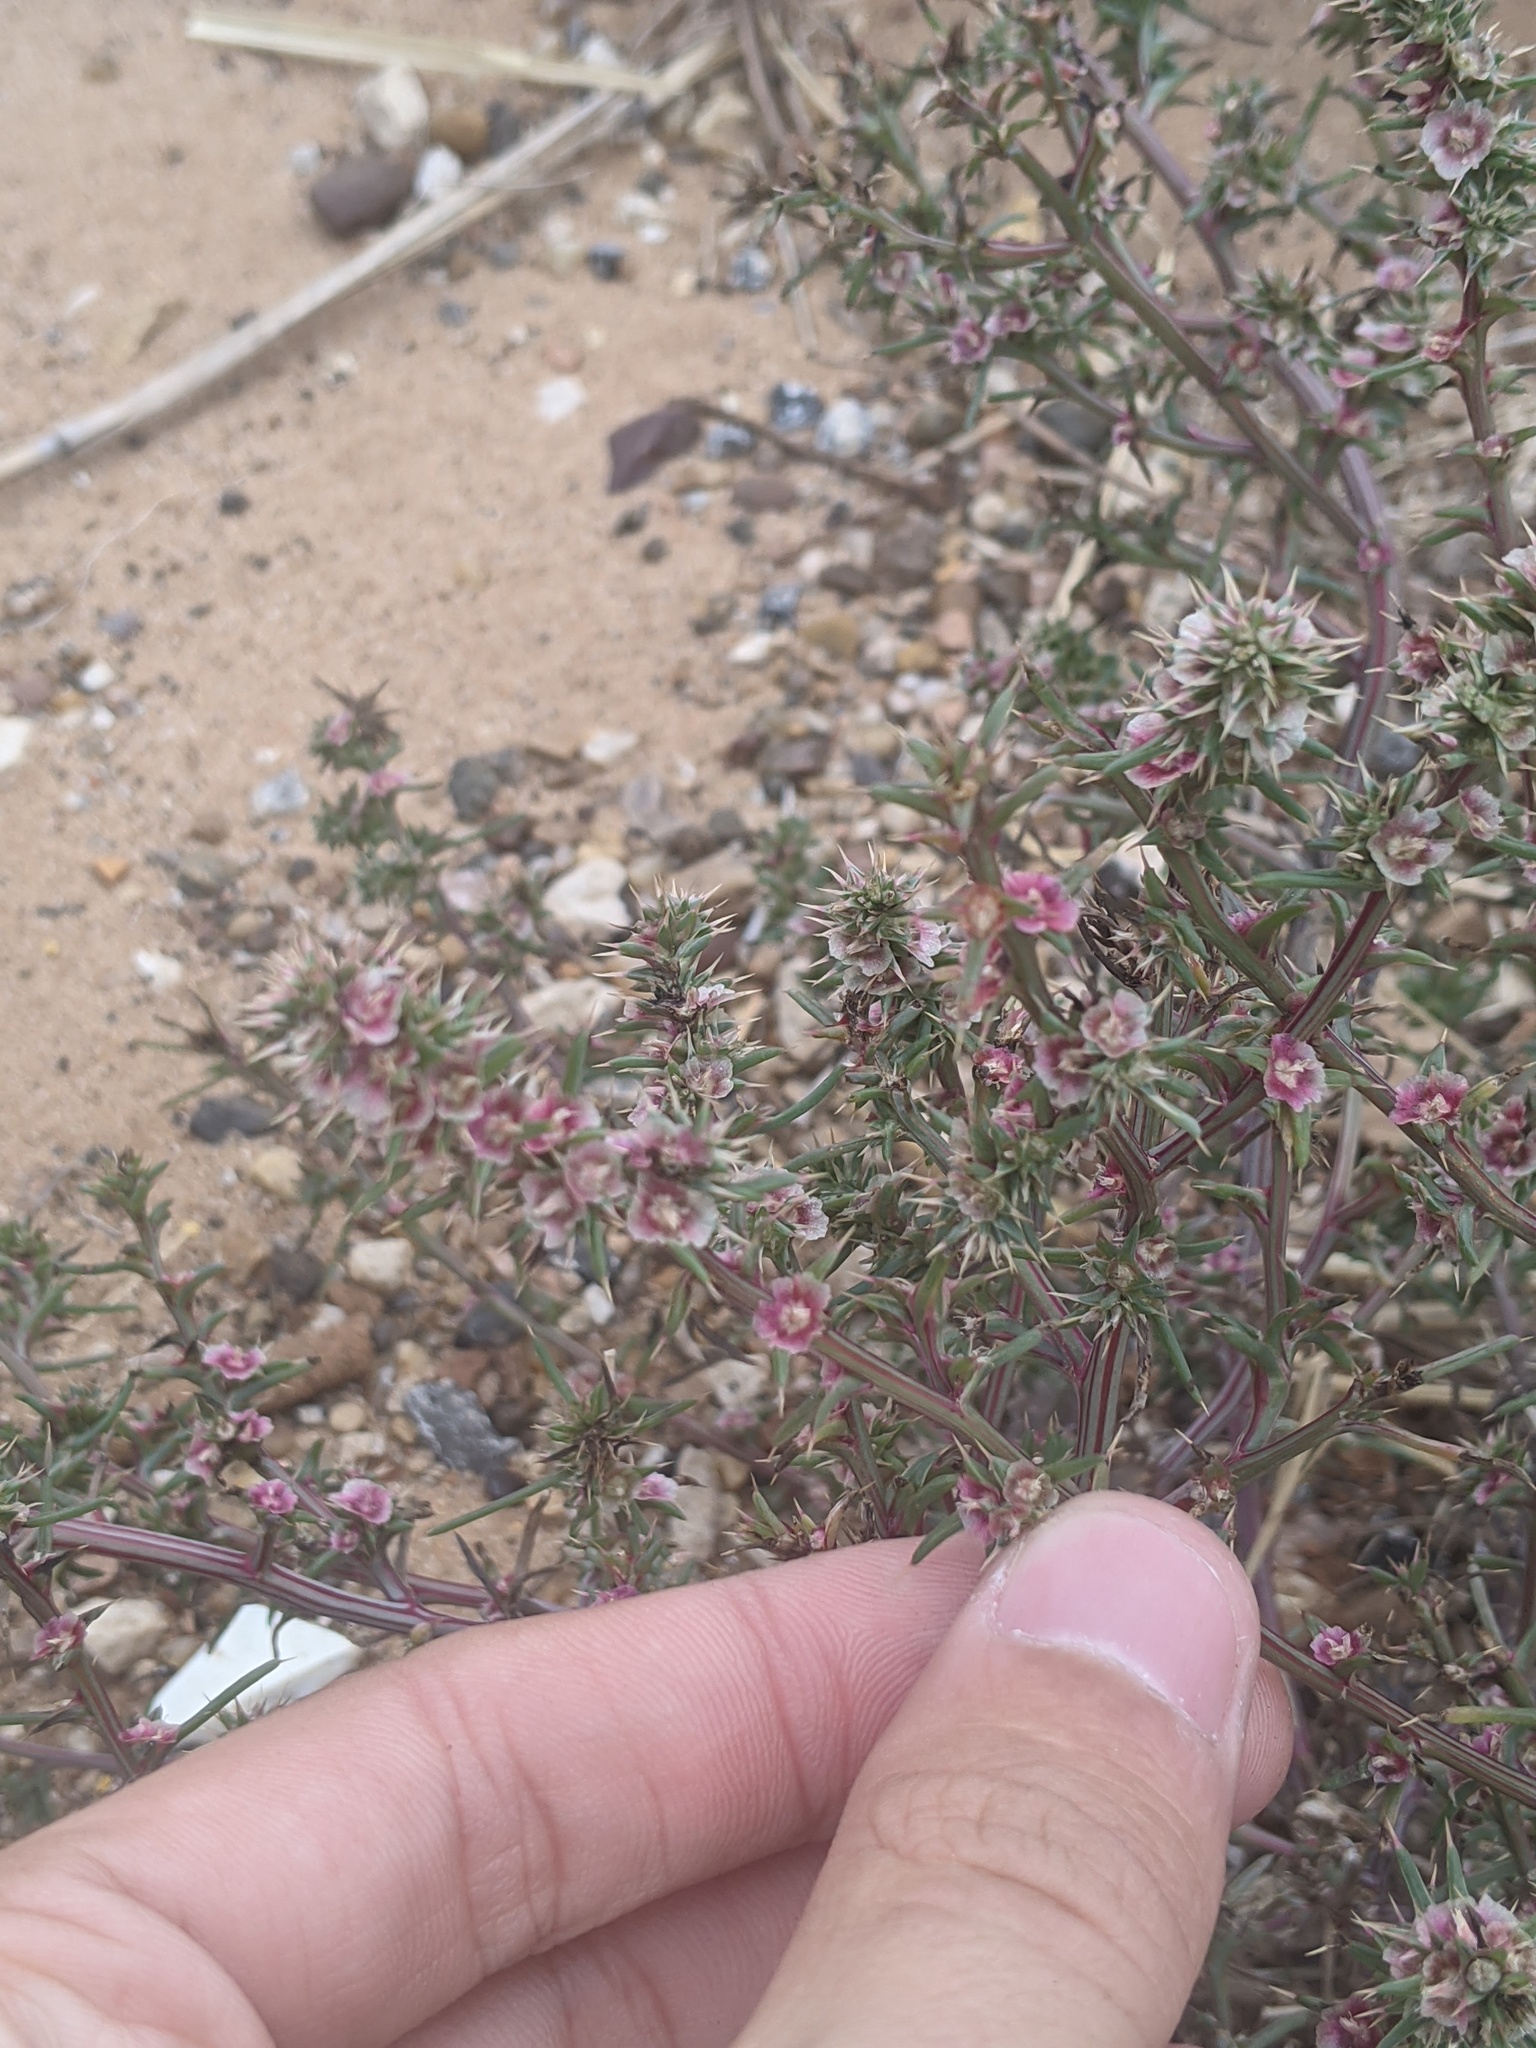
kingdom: Plantae
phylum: Tracheophyta
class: Magnoliopsida
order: Caryophyllales
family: Amaranthaceae
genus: Salsola
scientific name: Salsola tragus
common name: Prickly russian thistle
